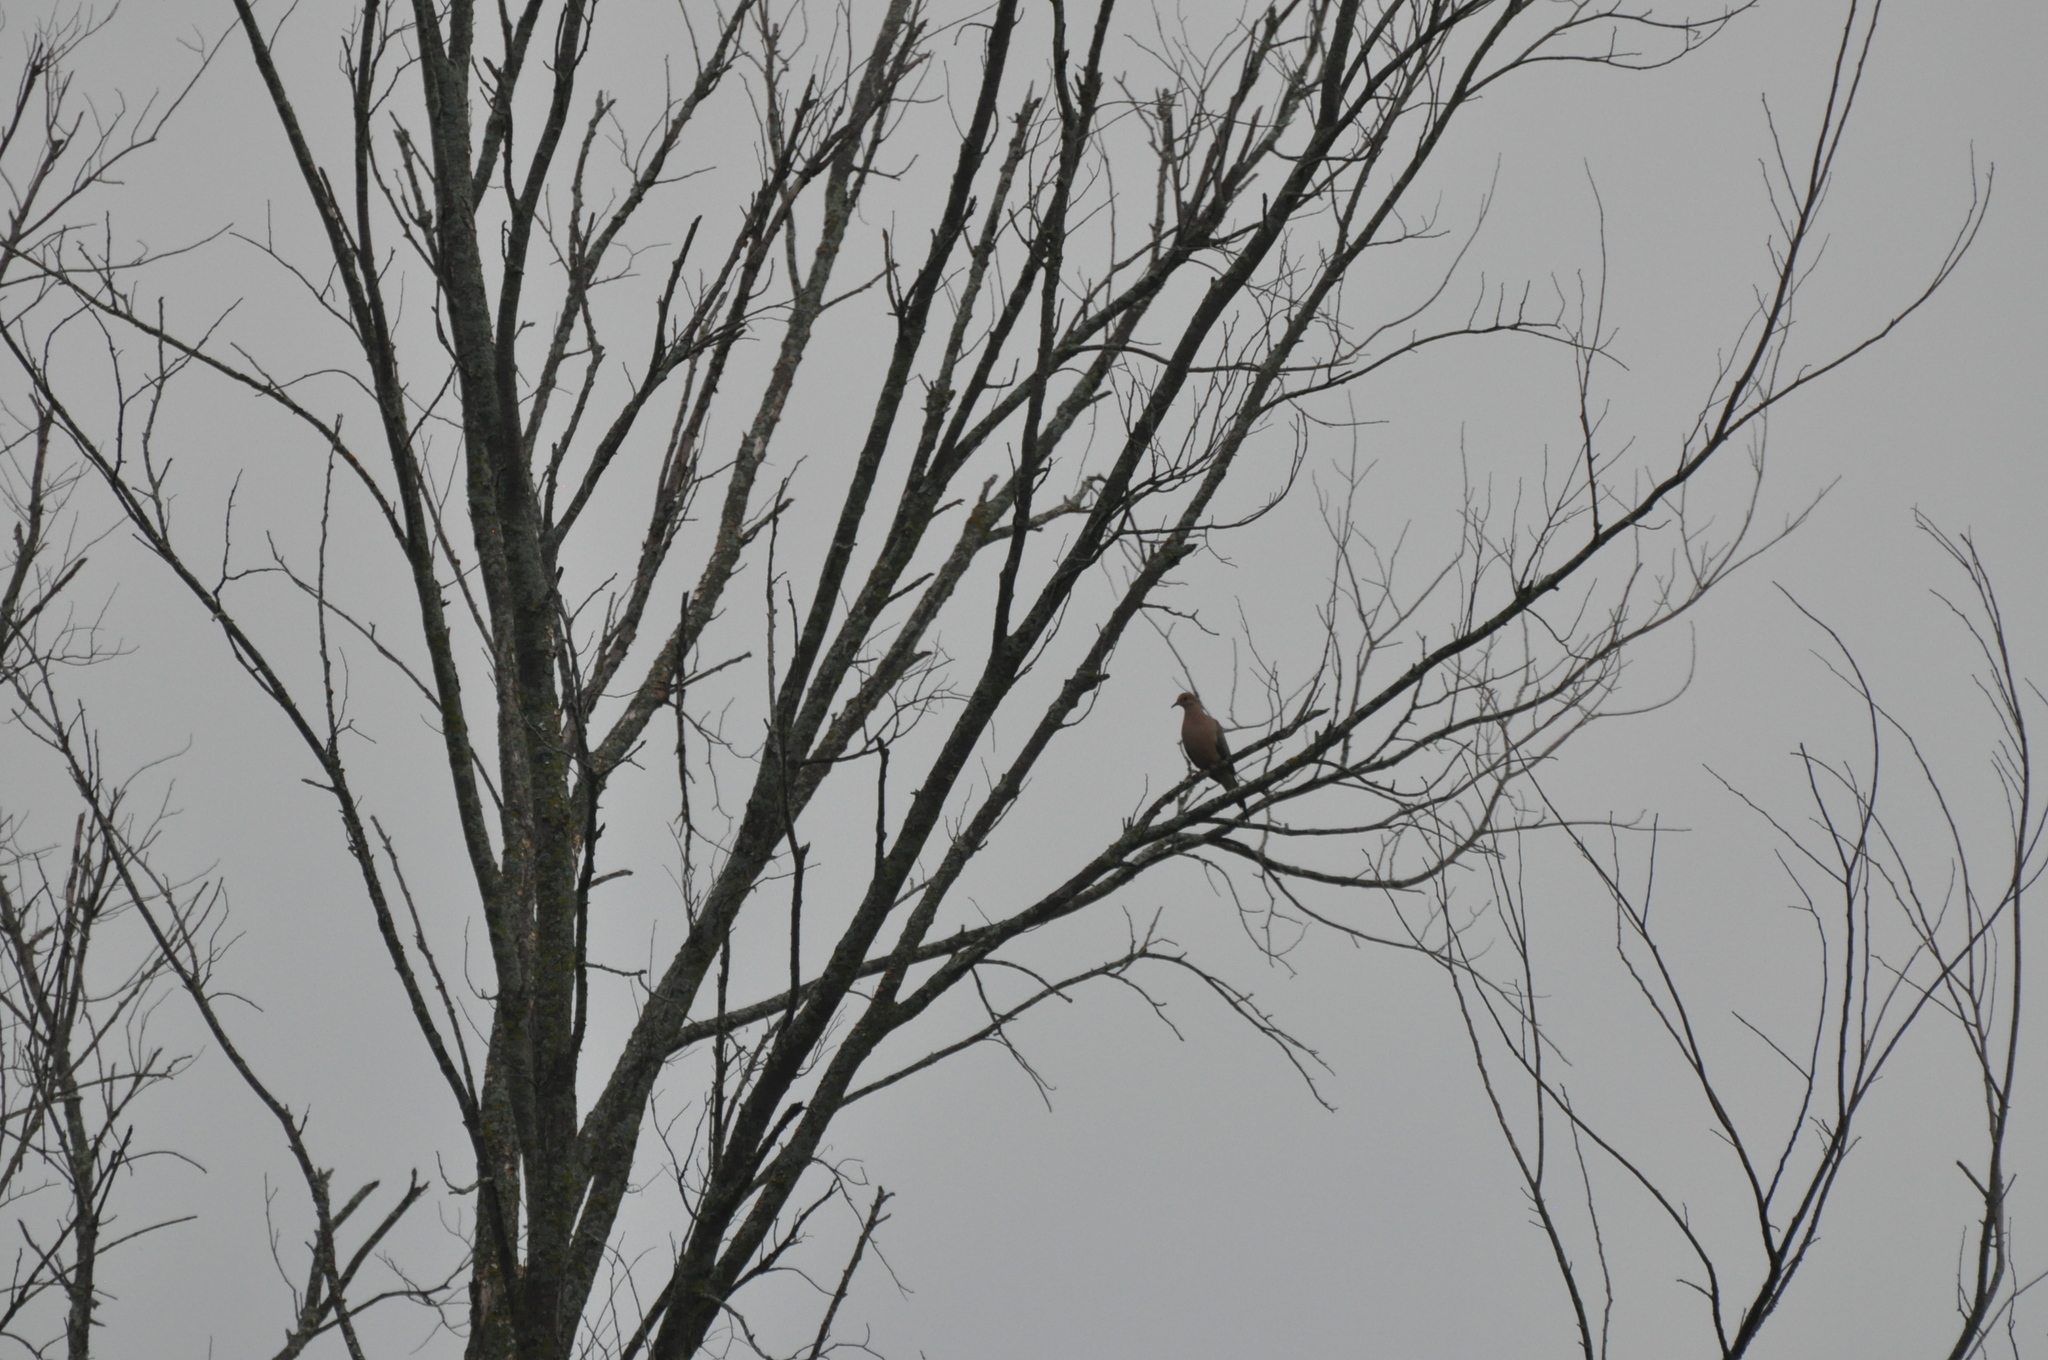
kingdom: Animalia
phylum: Chordata
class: Aves
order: Columbiformes
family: Columbidae
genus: Zenaida
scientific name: Zenaida macroura
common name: Mourning dove
